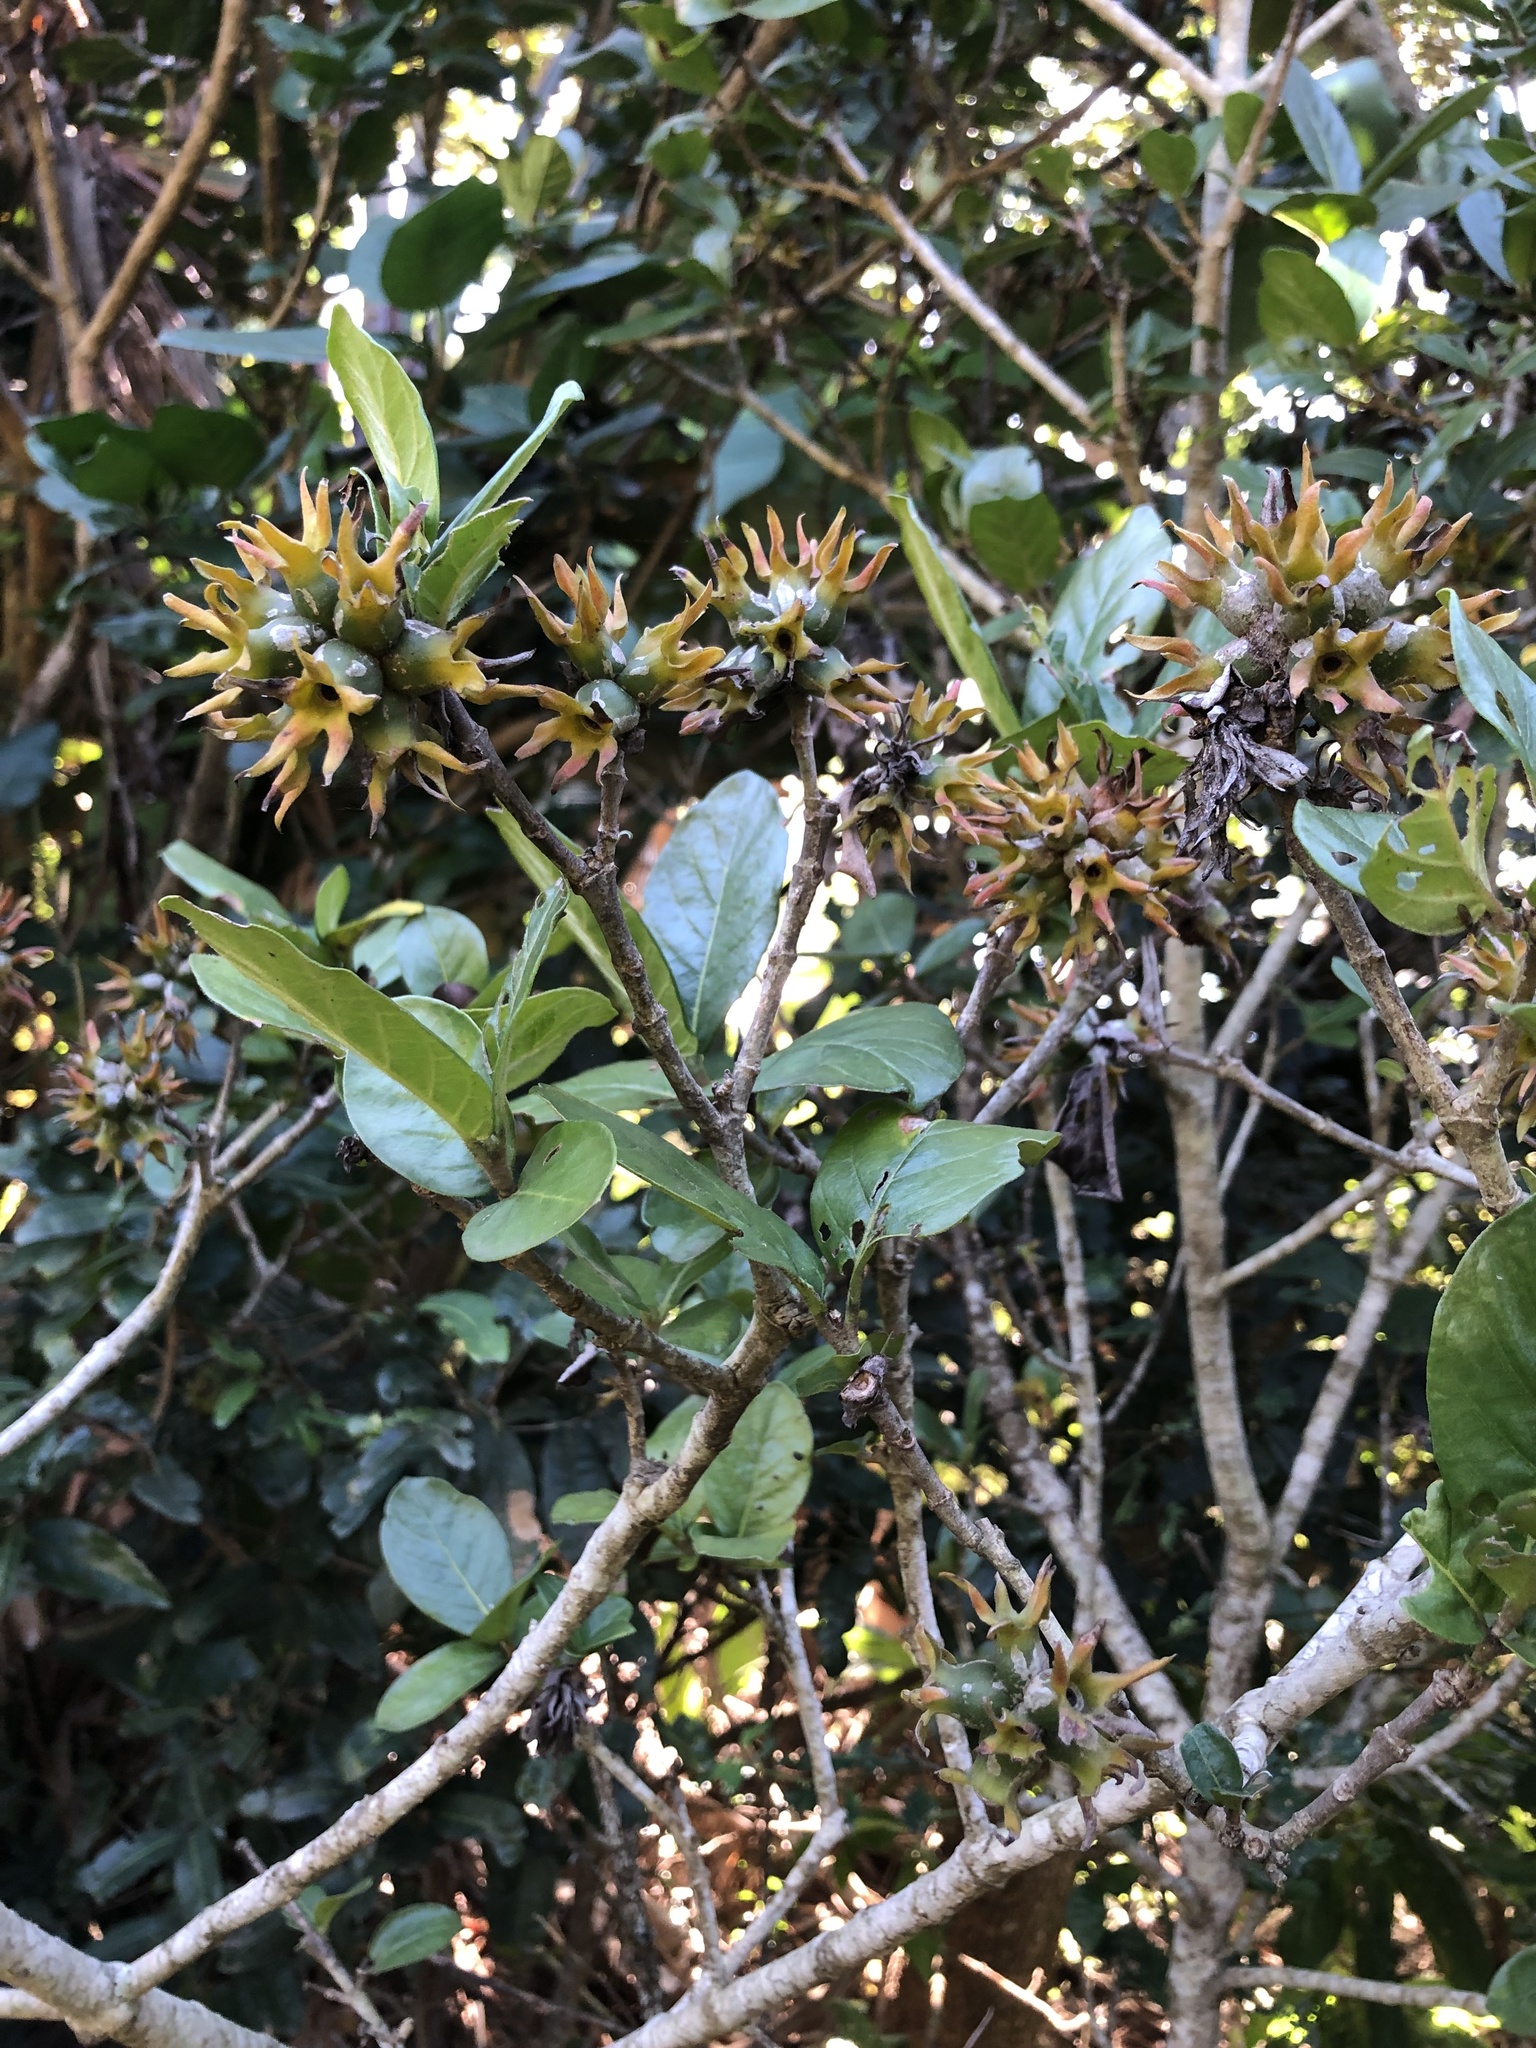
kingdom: Plantae
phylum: Tracheophyta
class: Magnoliopsida
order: Gentianales
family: Rubiaceae
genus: Burchellia
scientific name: Burchellia bubalina
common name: Wild pomegranate
